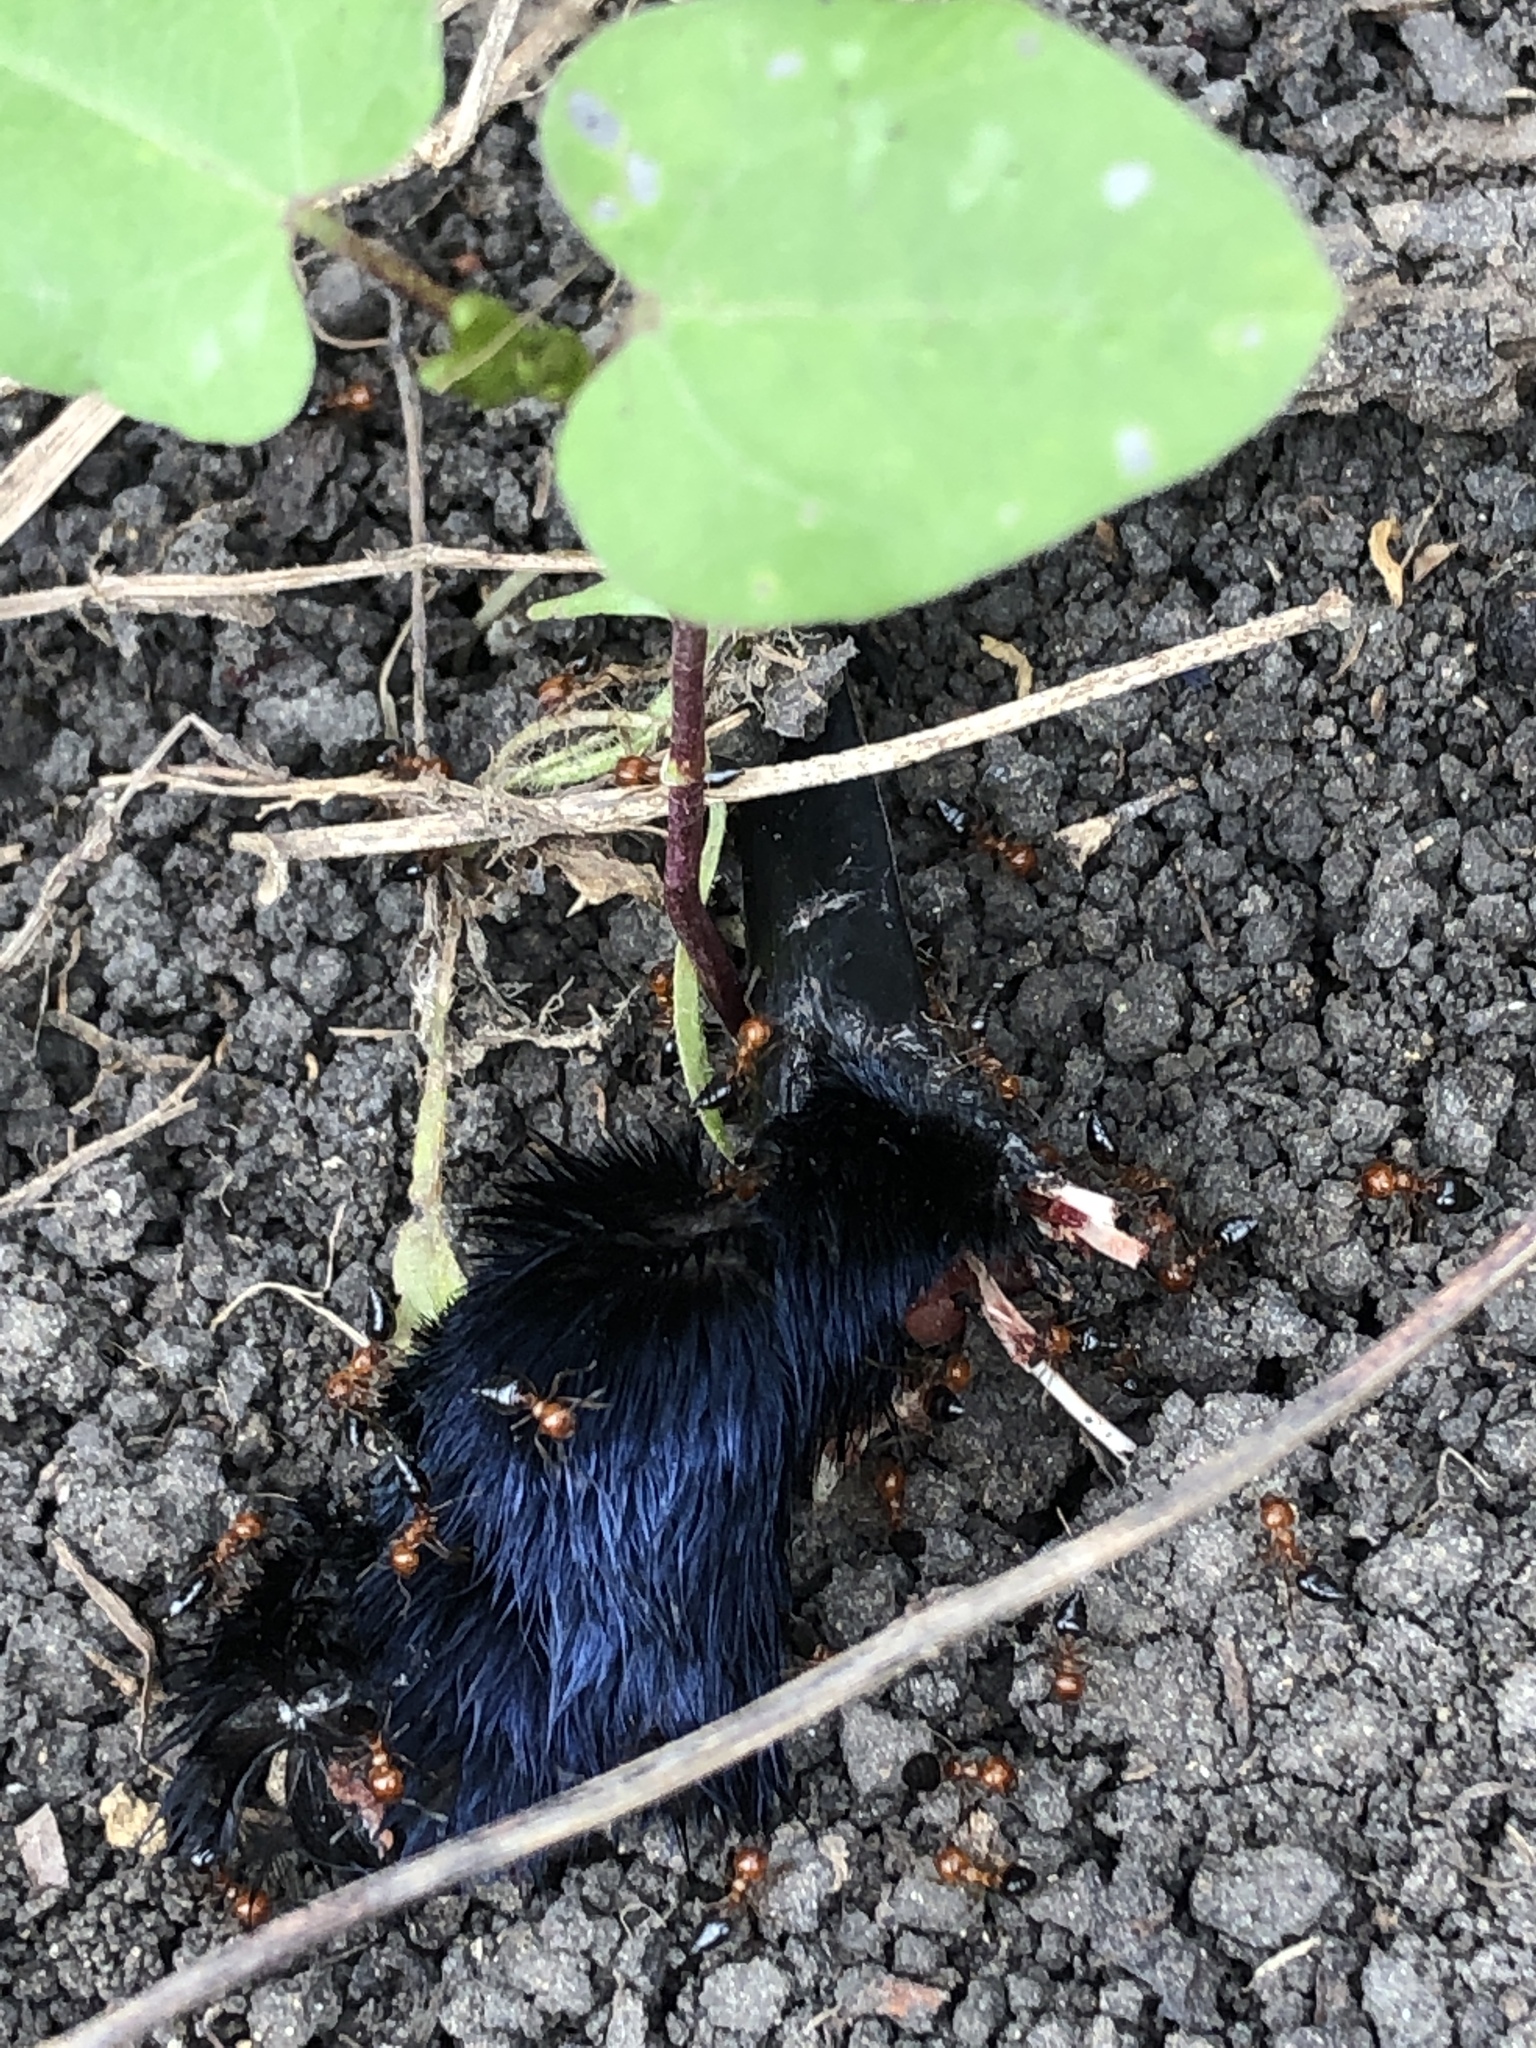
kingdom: Animalia
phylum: Chordata
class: Aves
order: Passeriformes
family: Icteridae
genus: Quiscalus
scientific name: Quiscalus mexicanus
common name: Great-tailed grackle
